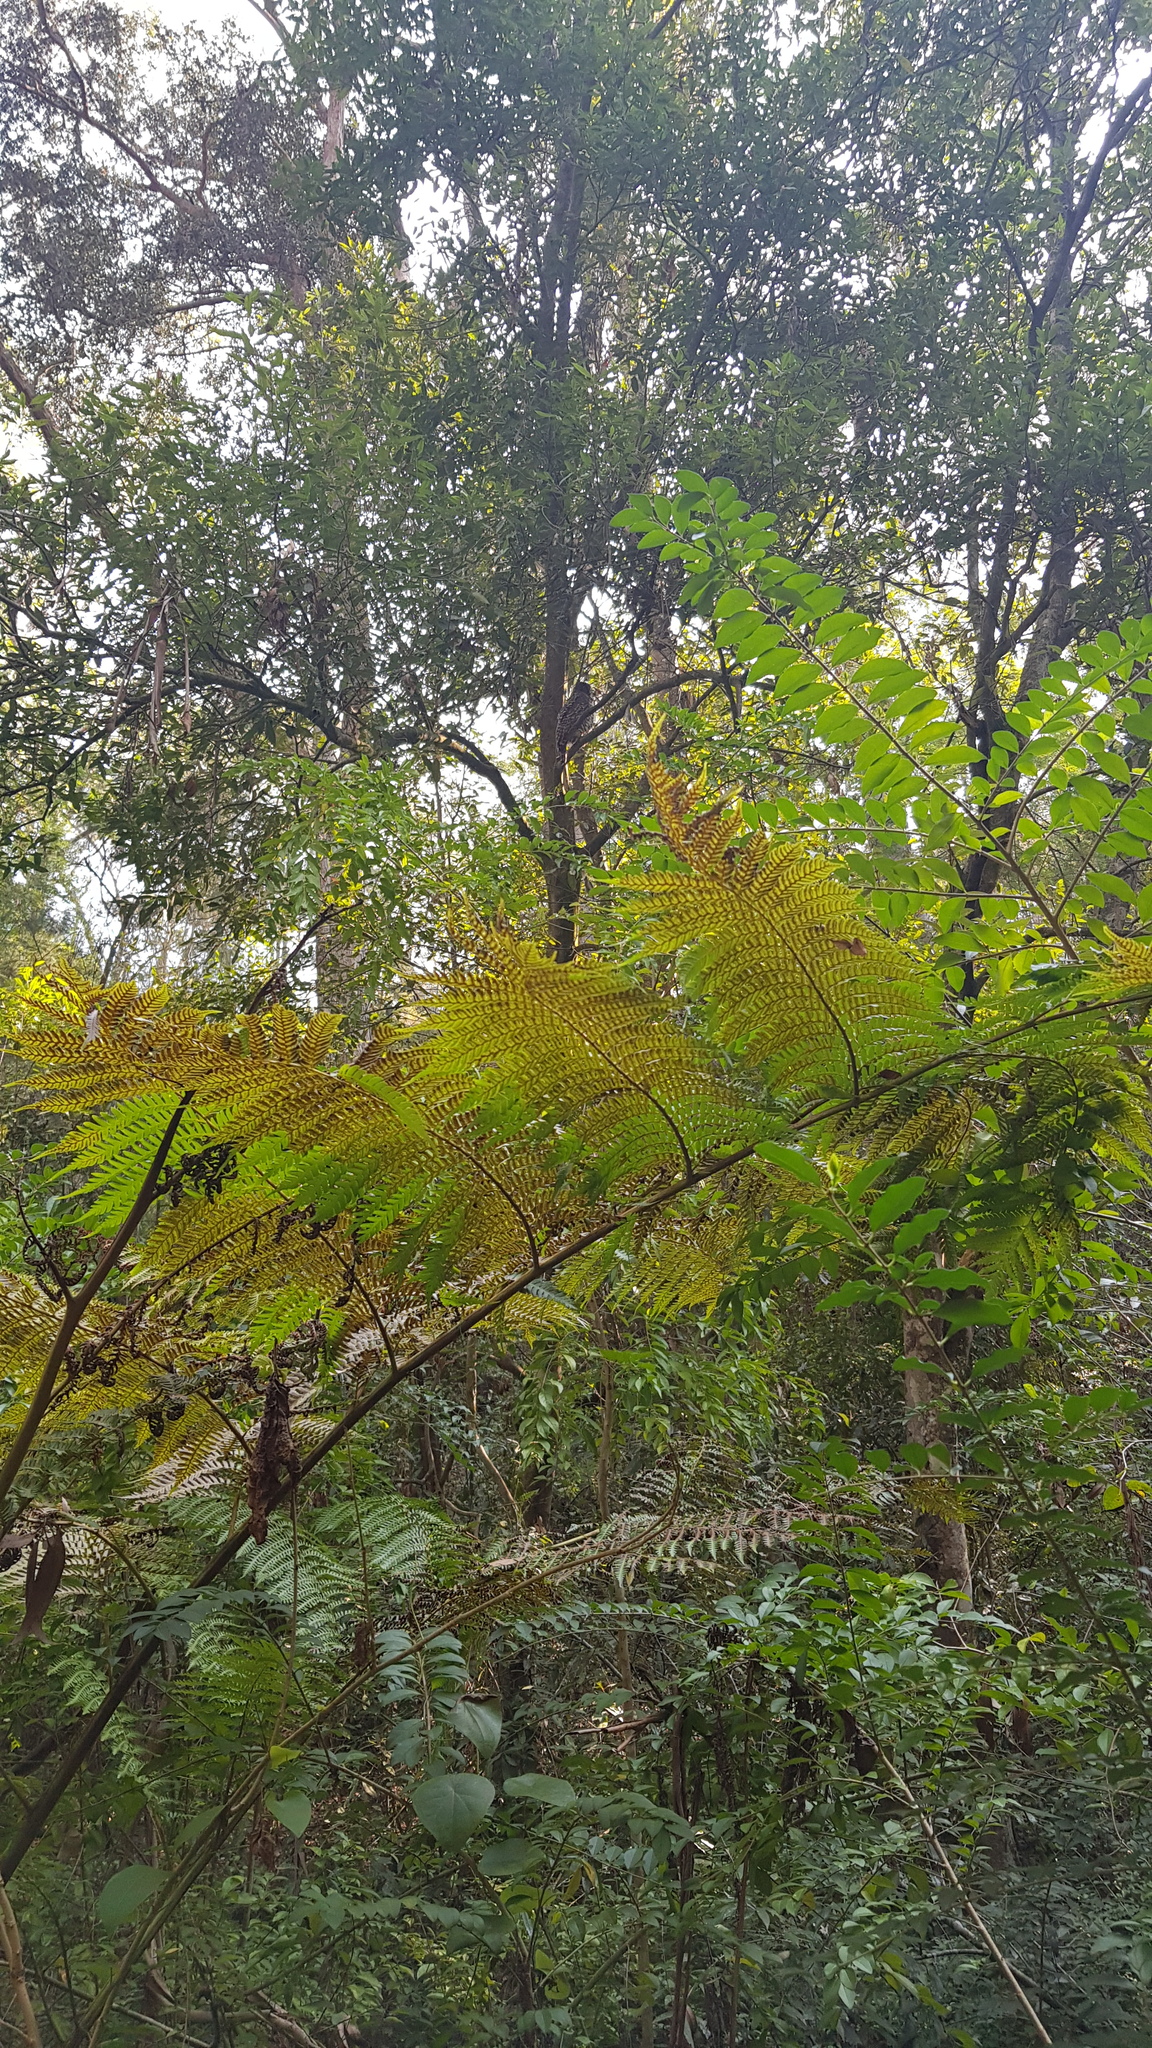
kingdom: Animalia
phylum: Chordata
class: Aves
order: Strigiformes
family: Strigidae
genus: Ninox
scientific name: Ninox strenua
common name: Powerful owl
